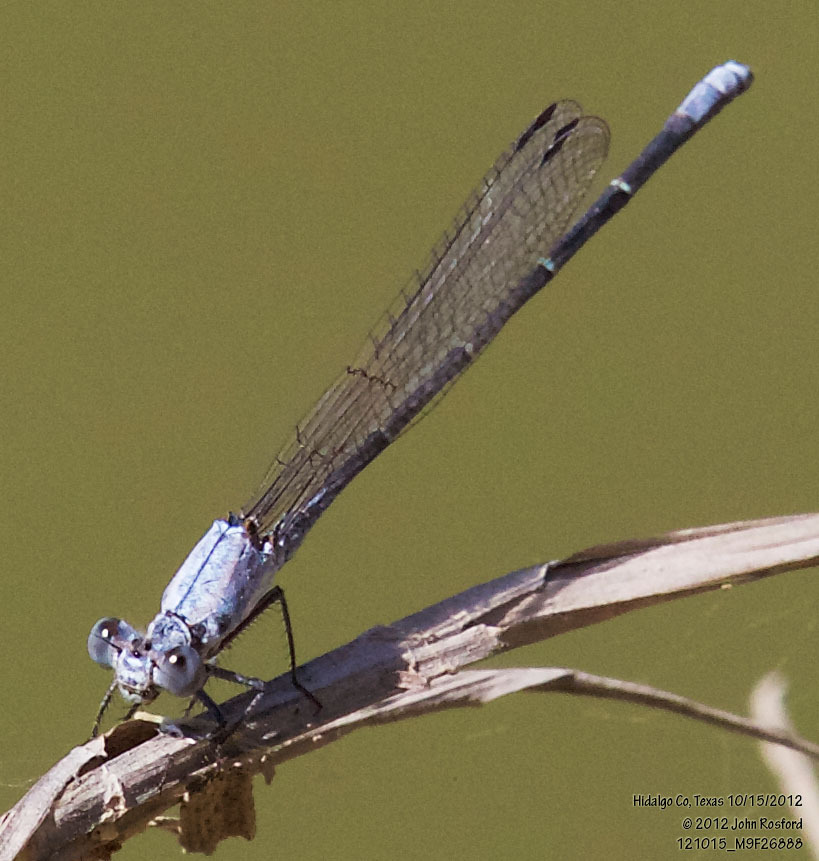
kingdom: Animalia
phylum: Arthropoda
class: Insecta
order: Odonata
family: Coenagrionidae
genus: Argia
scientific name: Argia moesta
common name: Powdered dancer
